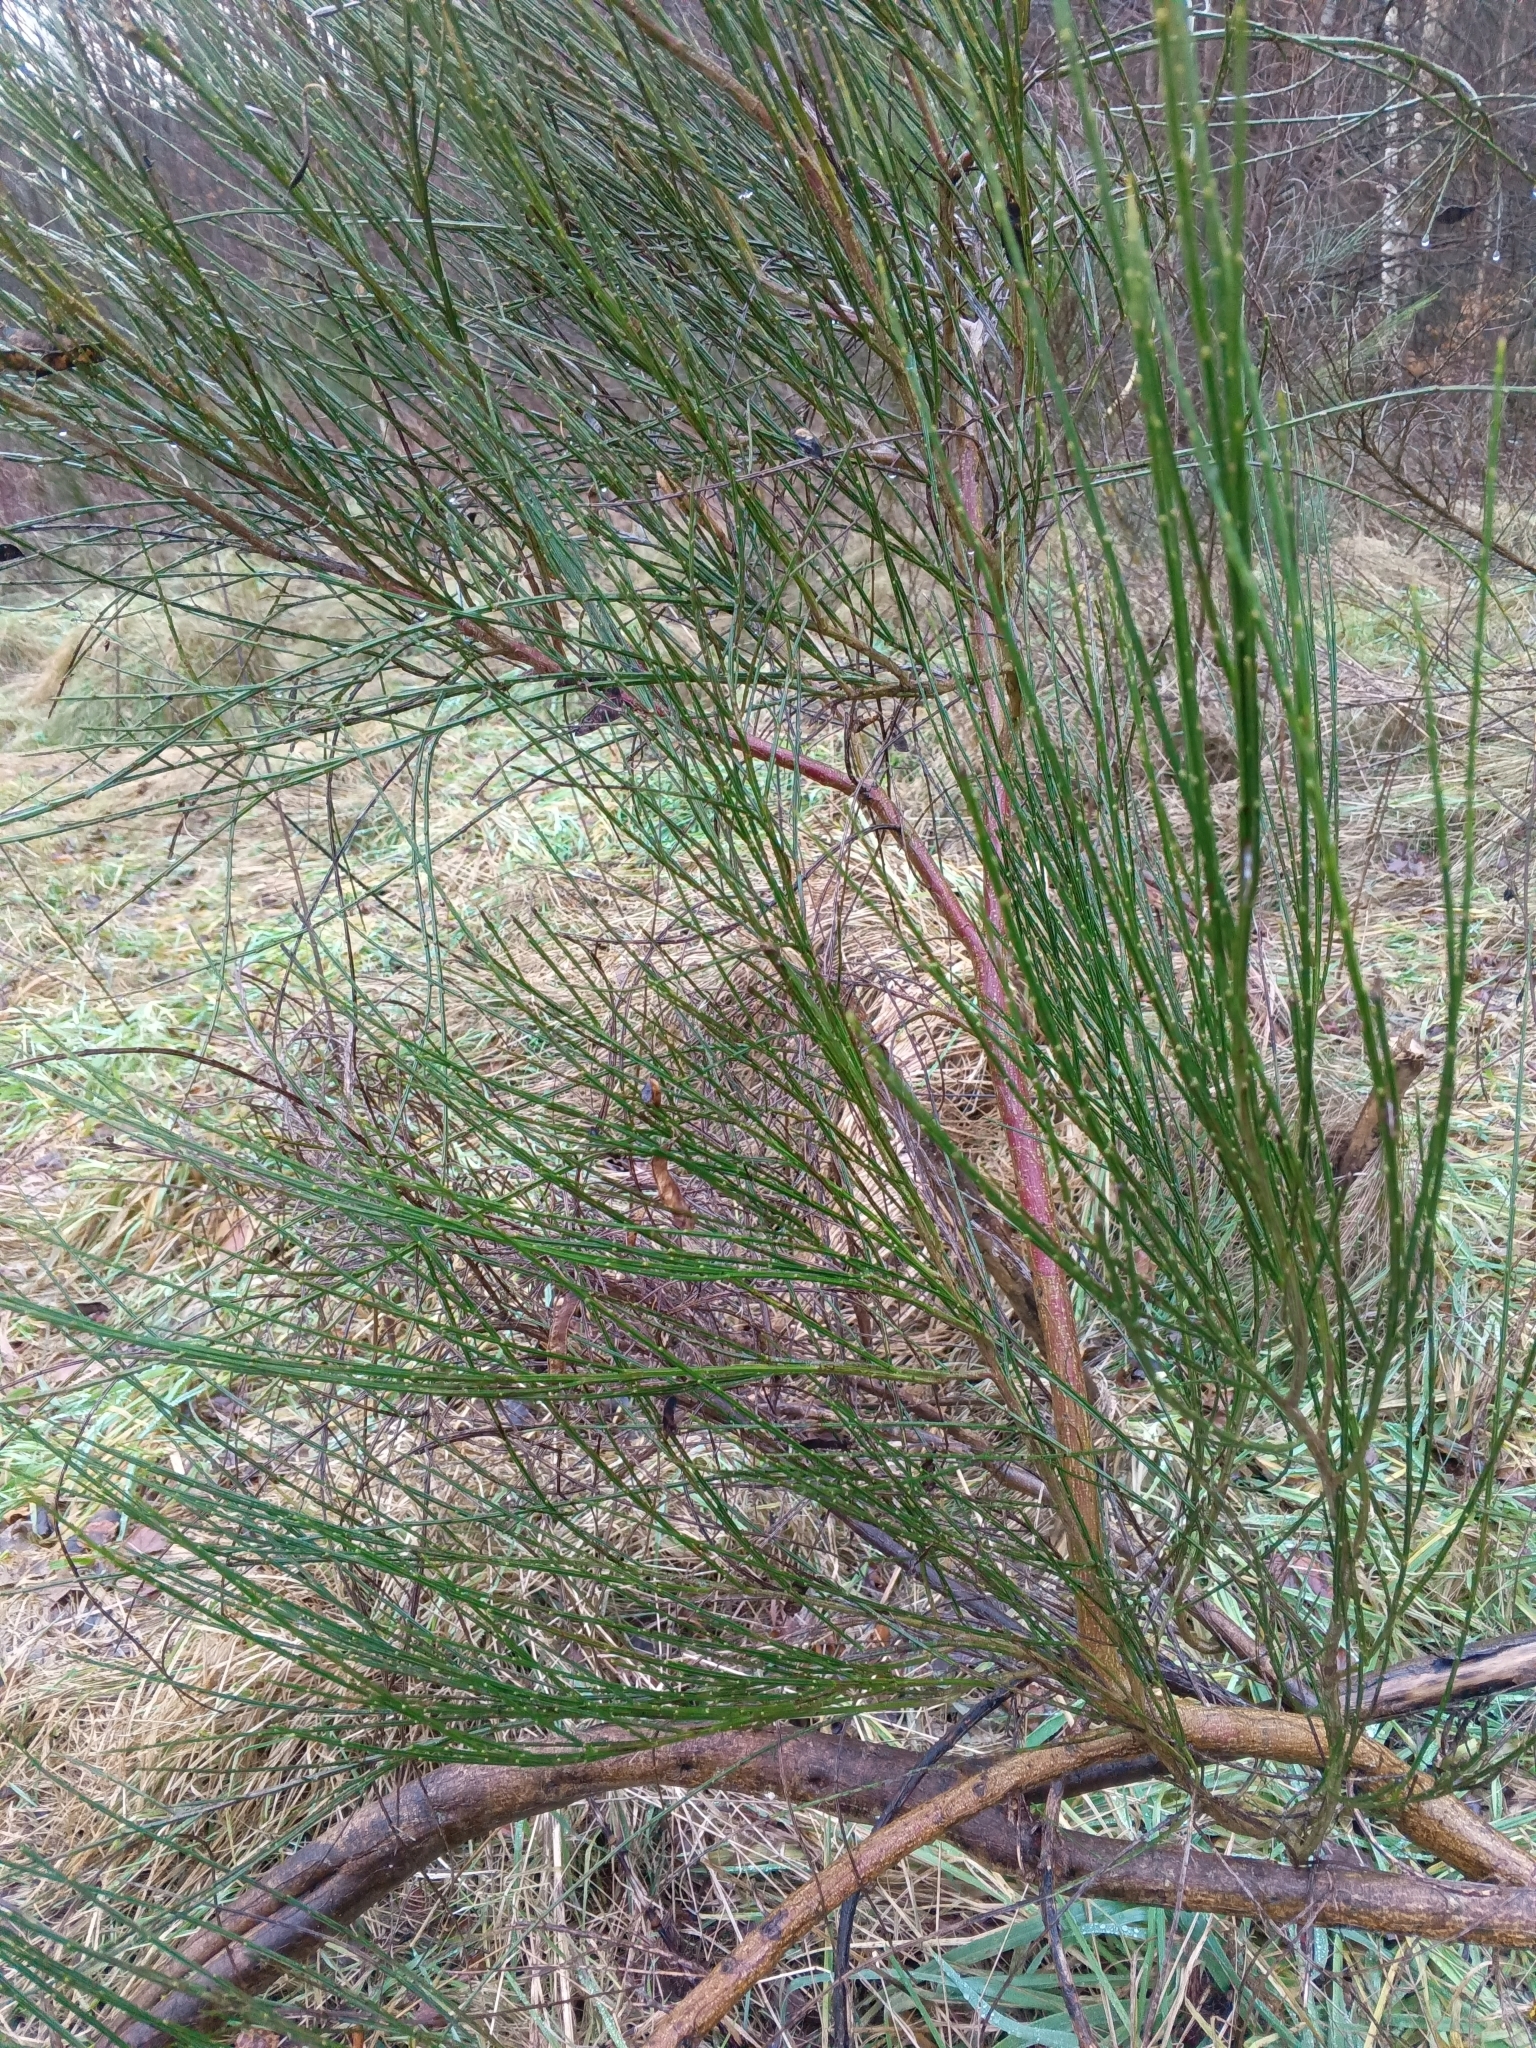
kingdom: Plantae
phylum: Tracheophyta
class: Magnoliopsida
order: Fabales
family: Fabaceae
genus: Cytisus
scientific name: Cytisus scoparius
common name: Scotch broom
